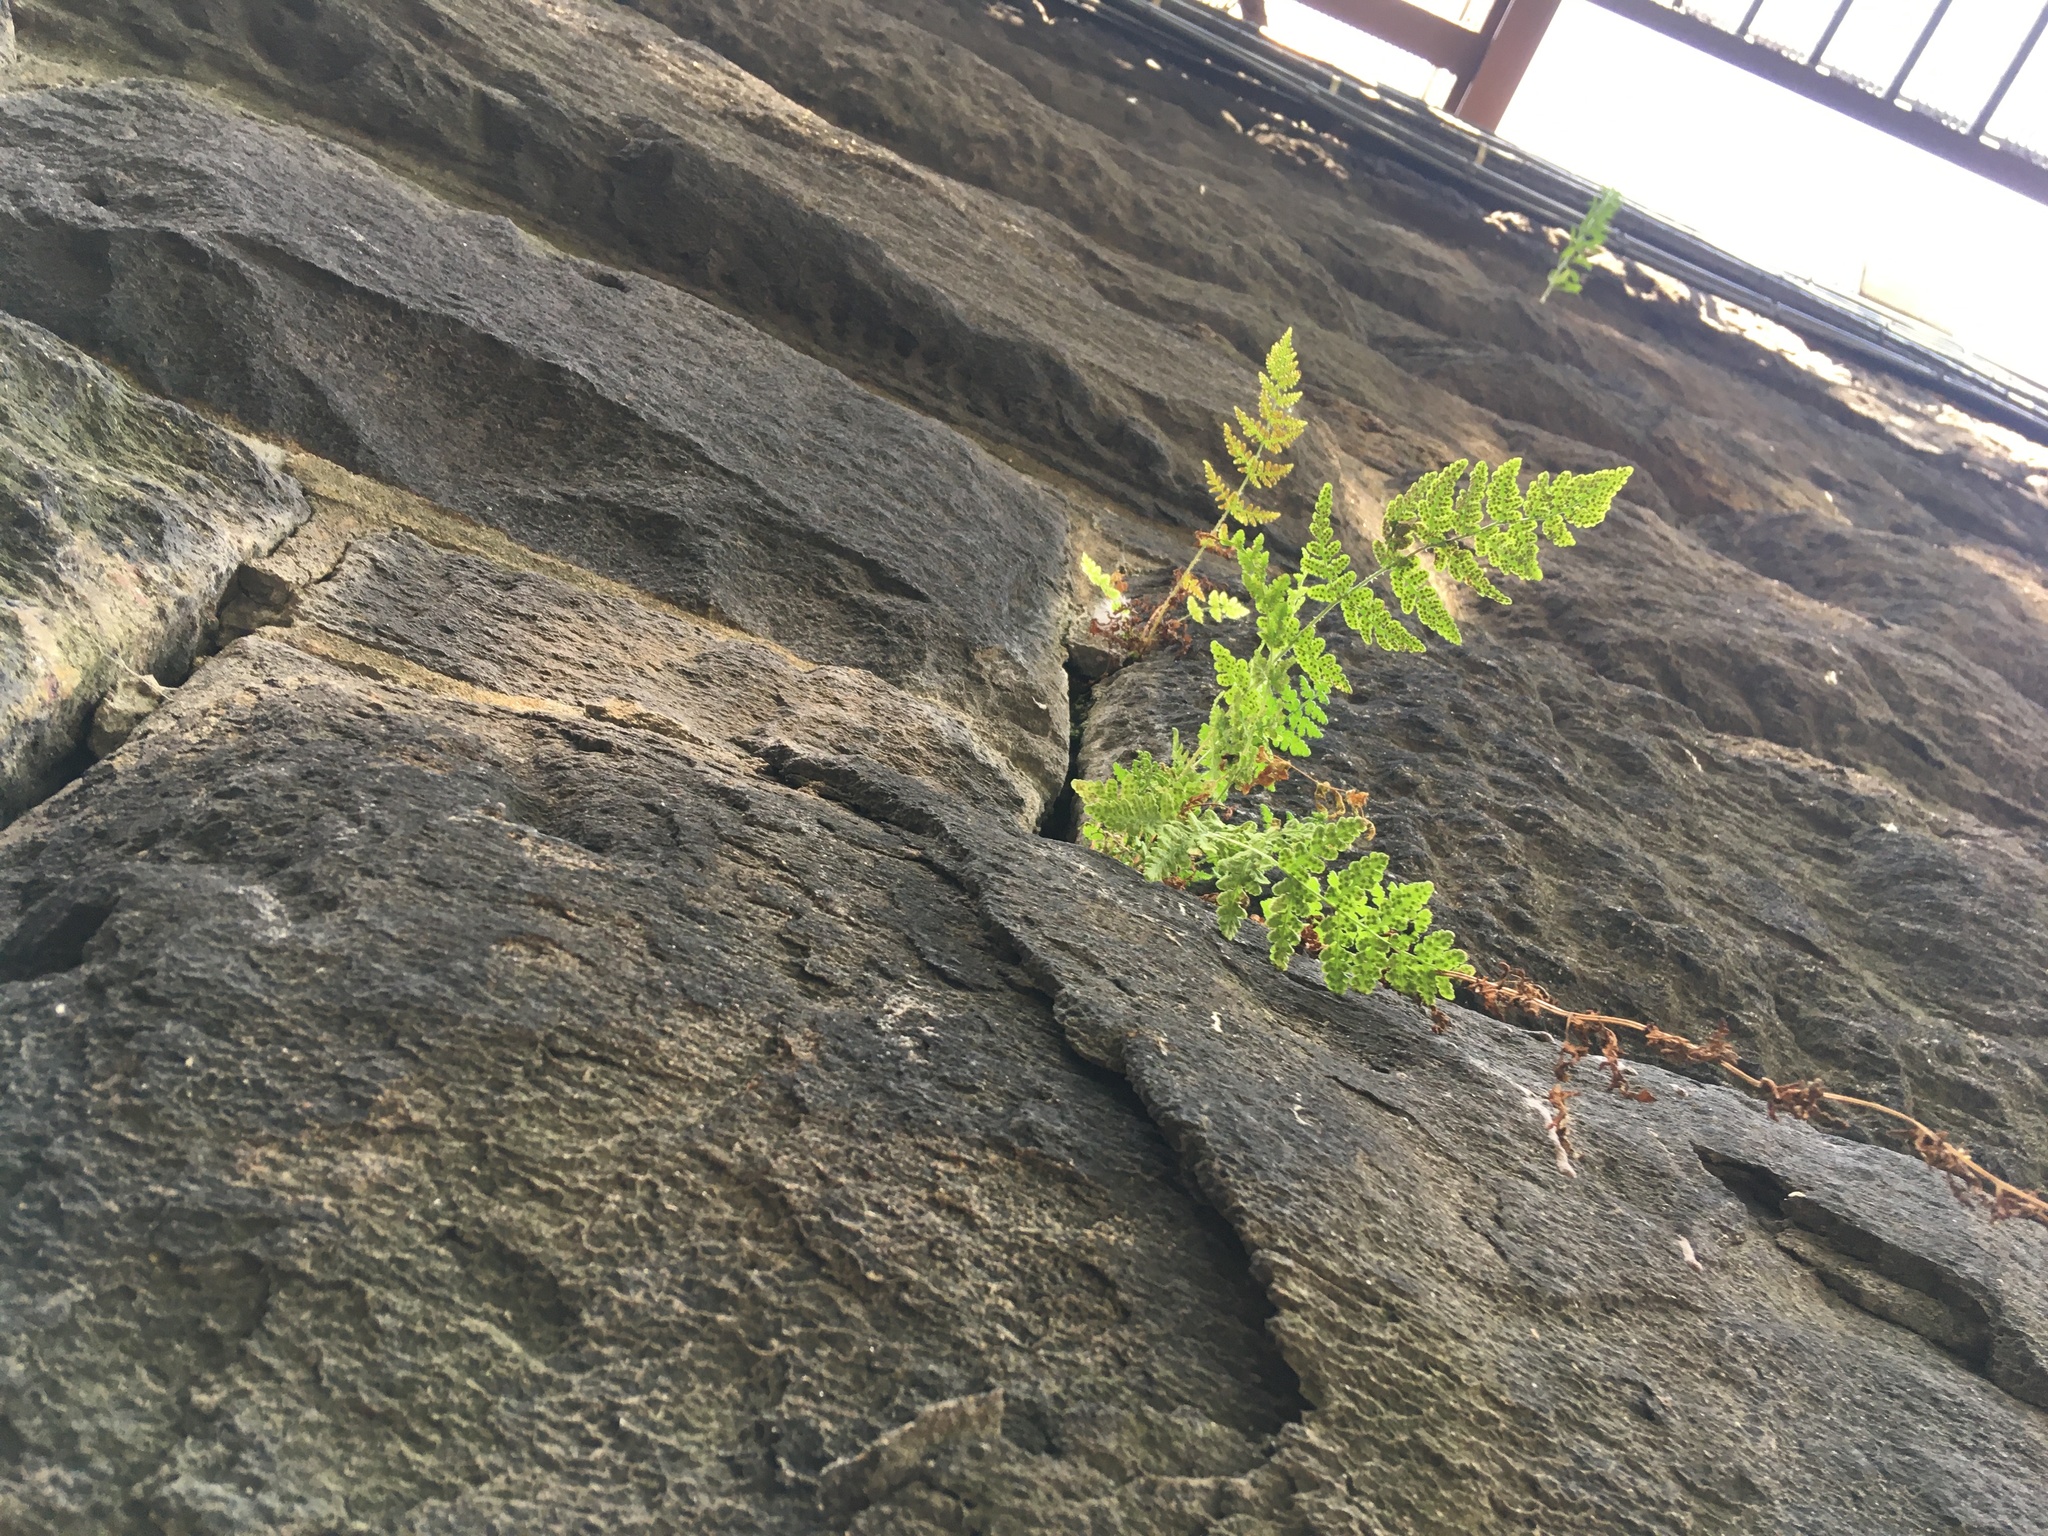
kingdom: Plantae
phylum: Tracheophyta
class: Polypodiopsida
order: Polypodiales
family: Woodsiaceae
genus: Physematium
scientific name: Physematium obtusum
